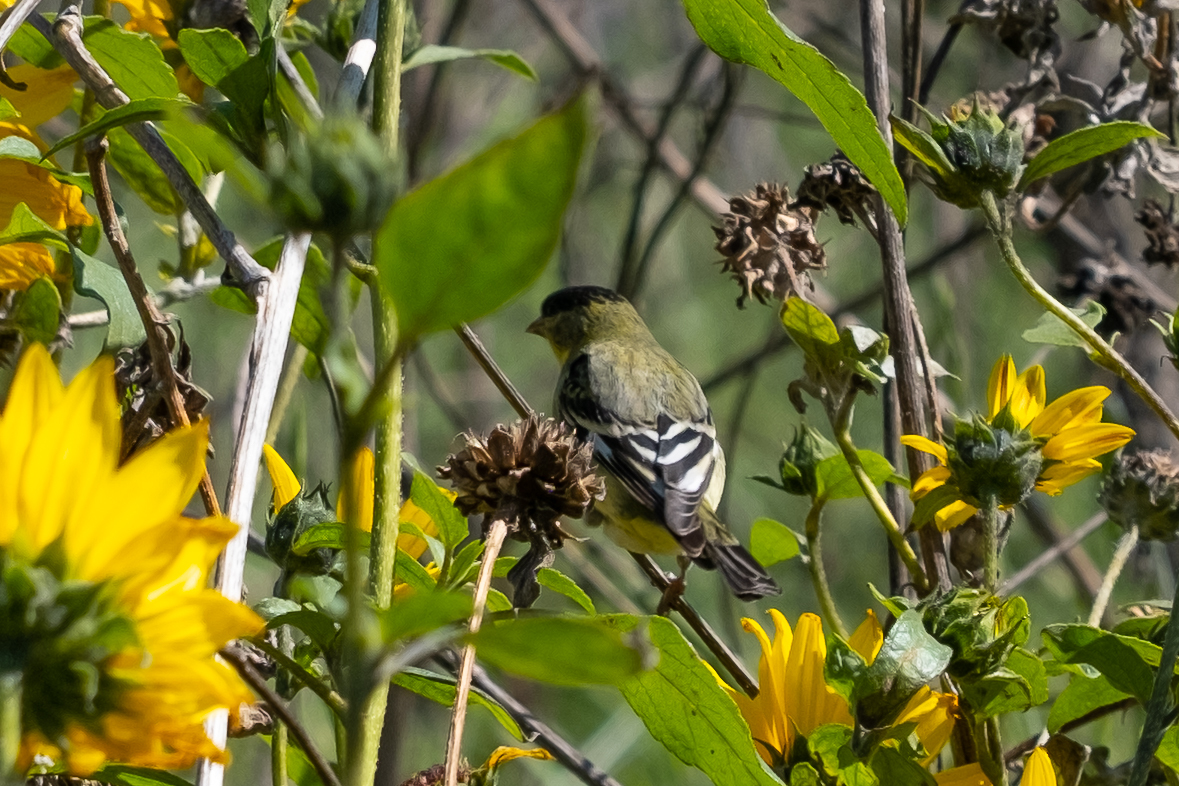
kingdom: Animalia
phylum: Chordata
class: Aves
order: Passeriformes
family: Fringillidae
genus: Spinus
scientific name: Spinus psaltria
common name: Lesser goldfinch
